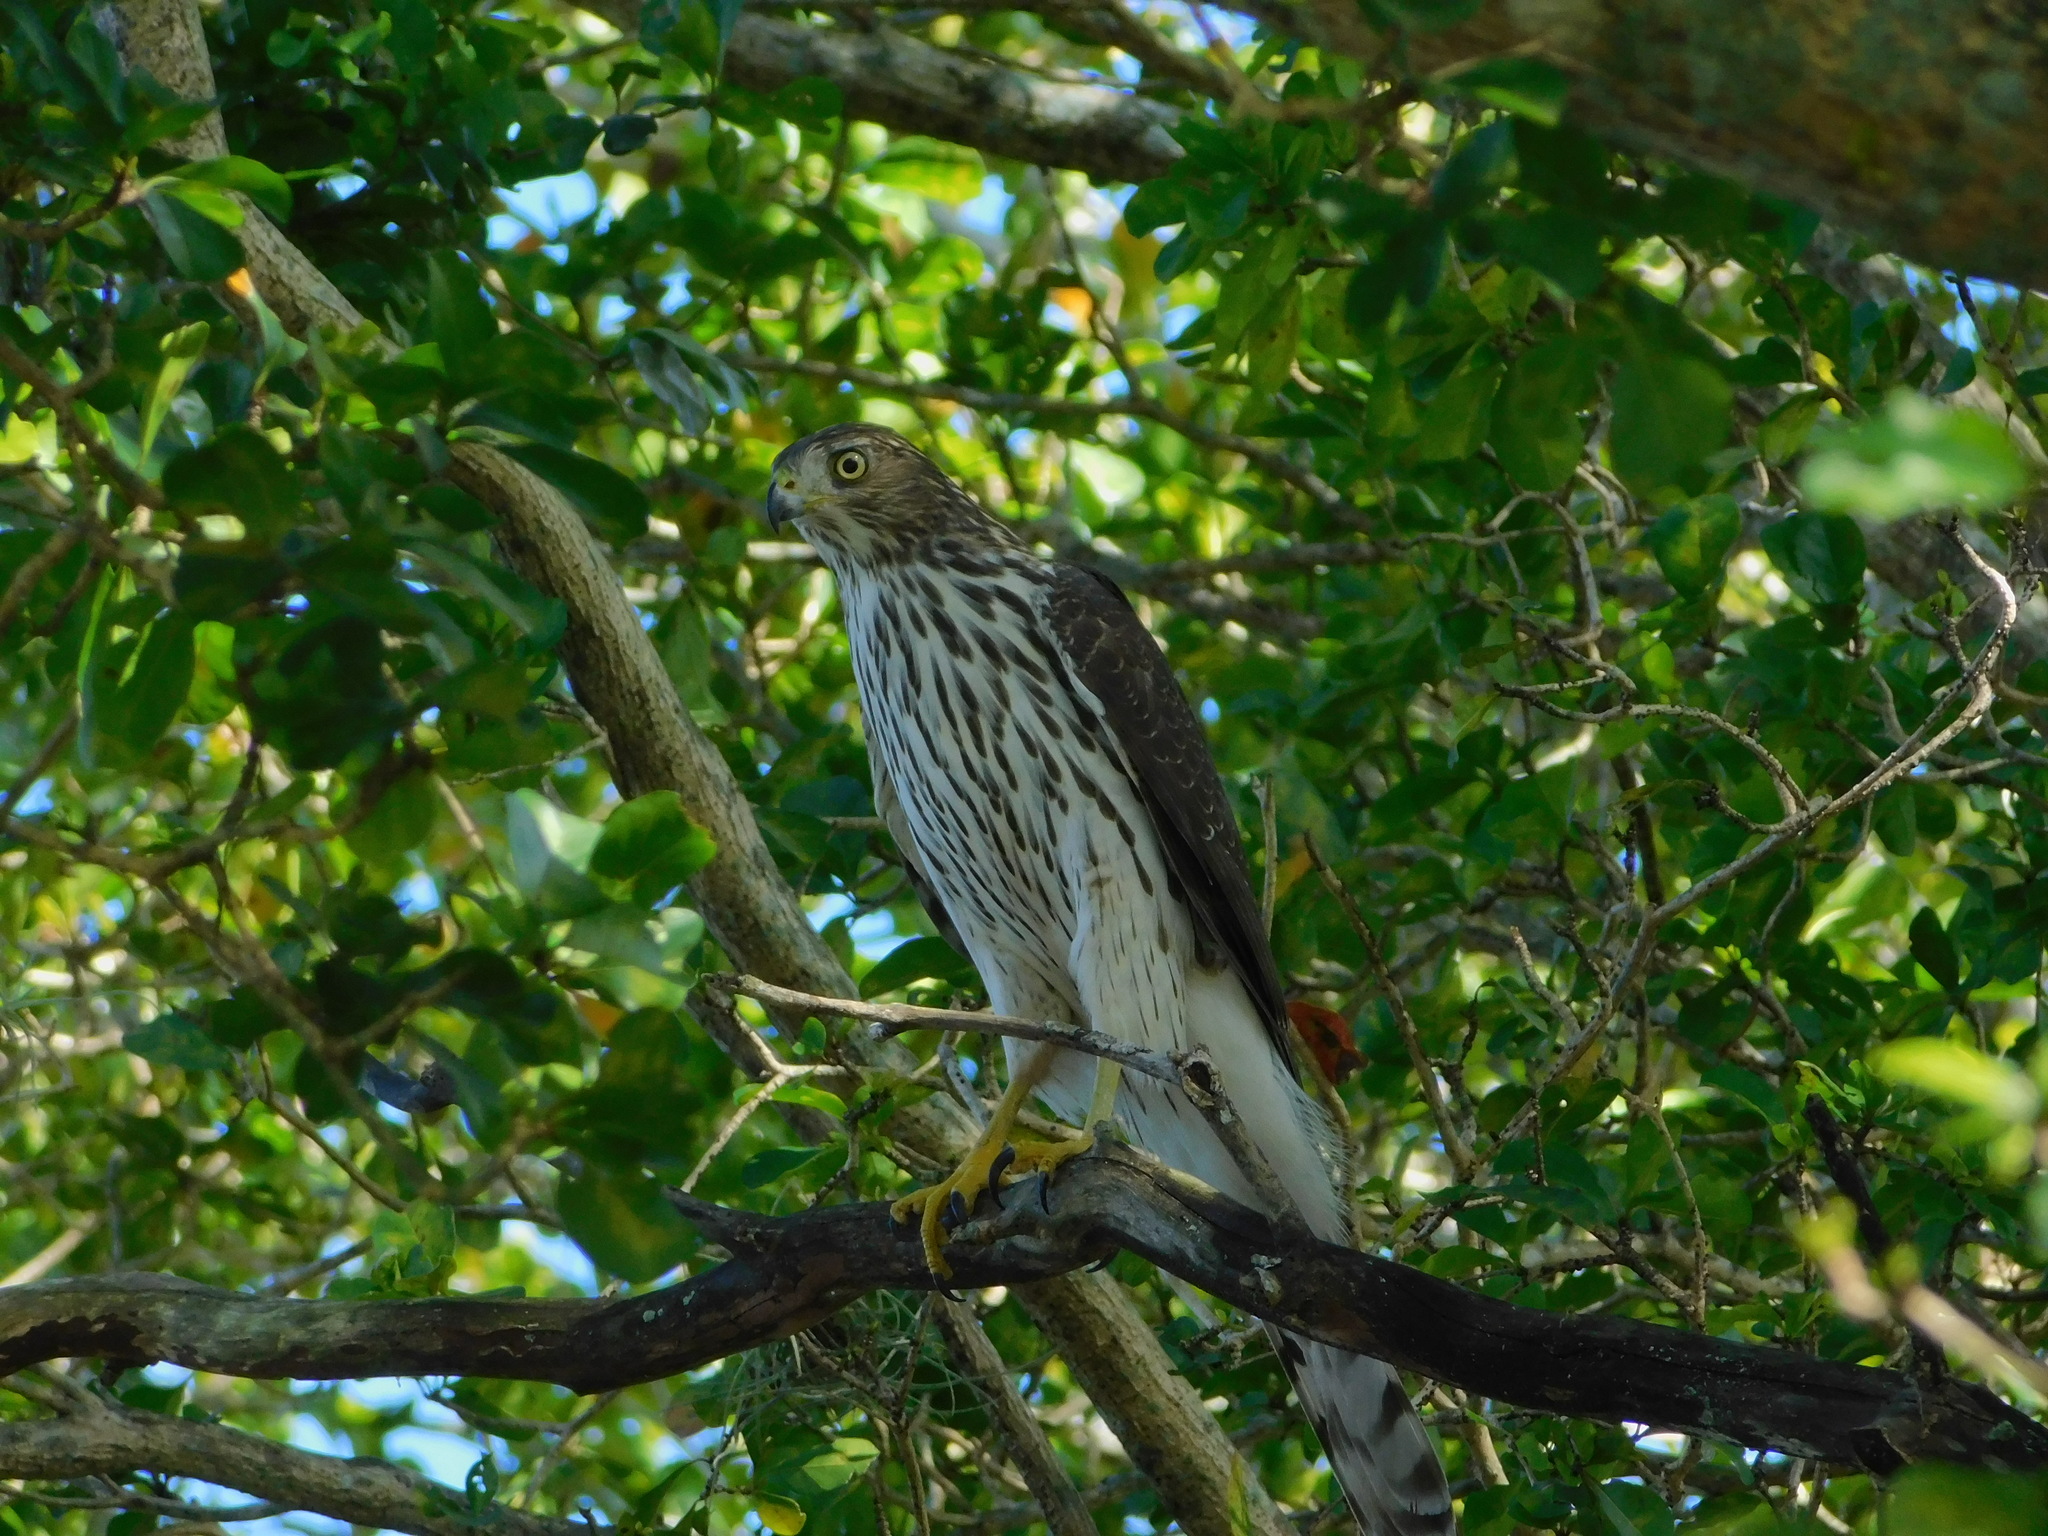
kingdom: Animalia
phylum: Chordata
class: Aves
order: Accipitriformes
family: Accipitridae
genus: Accipiter
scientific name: Accipiter cooperii
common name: Cooper's hawk
